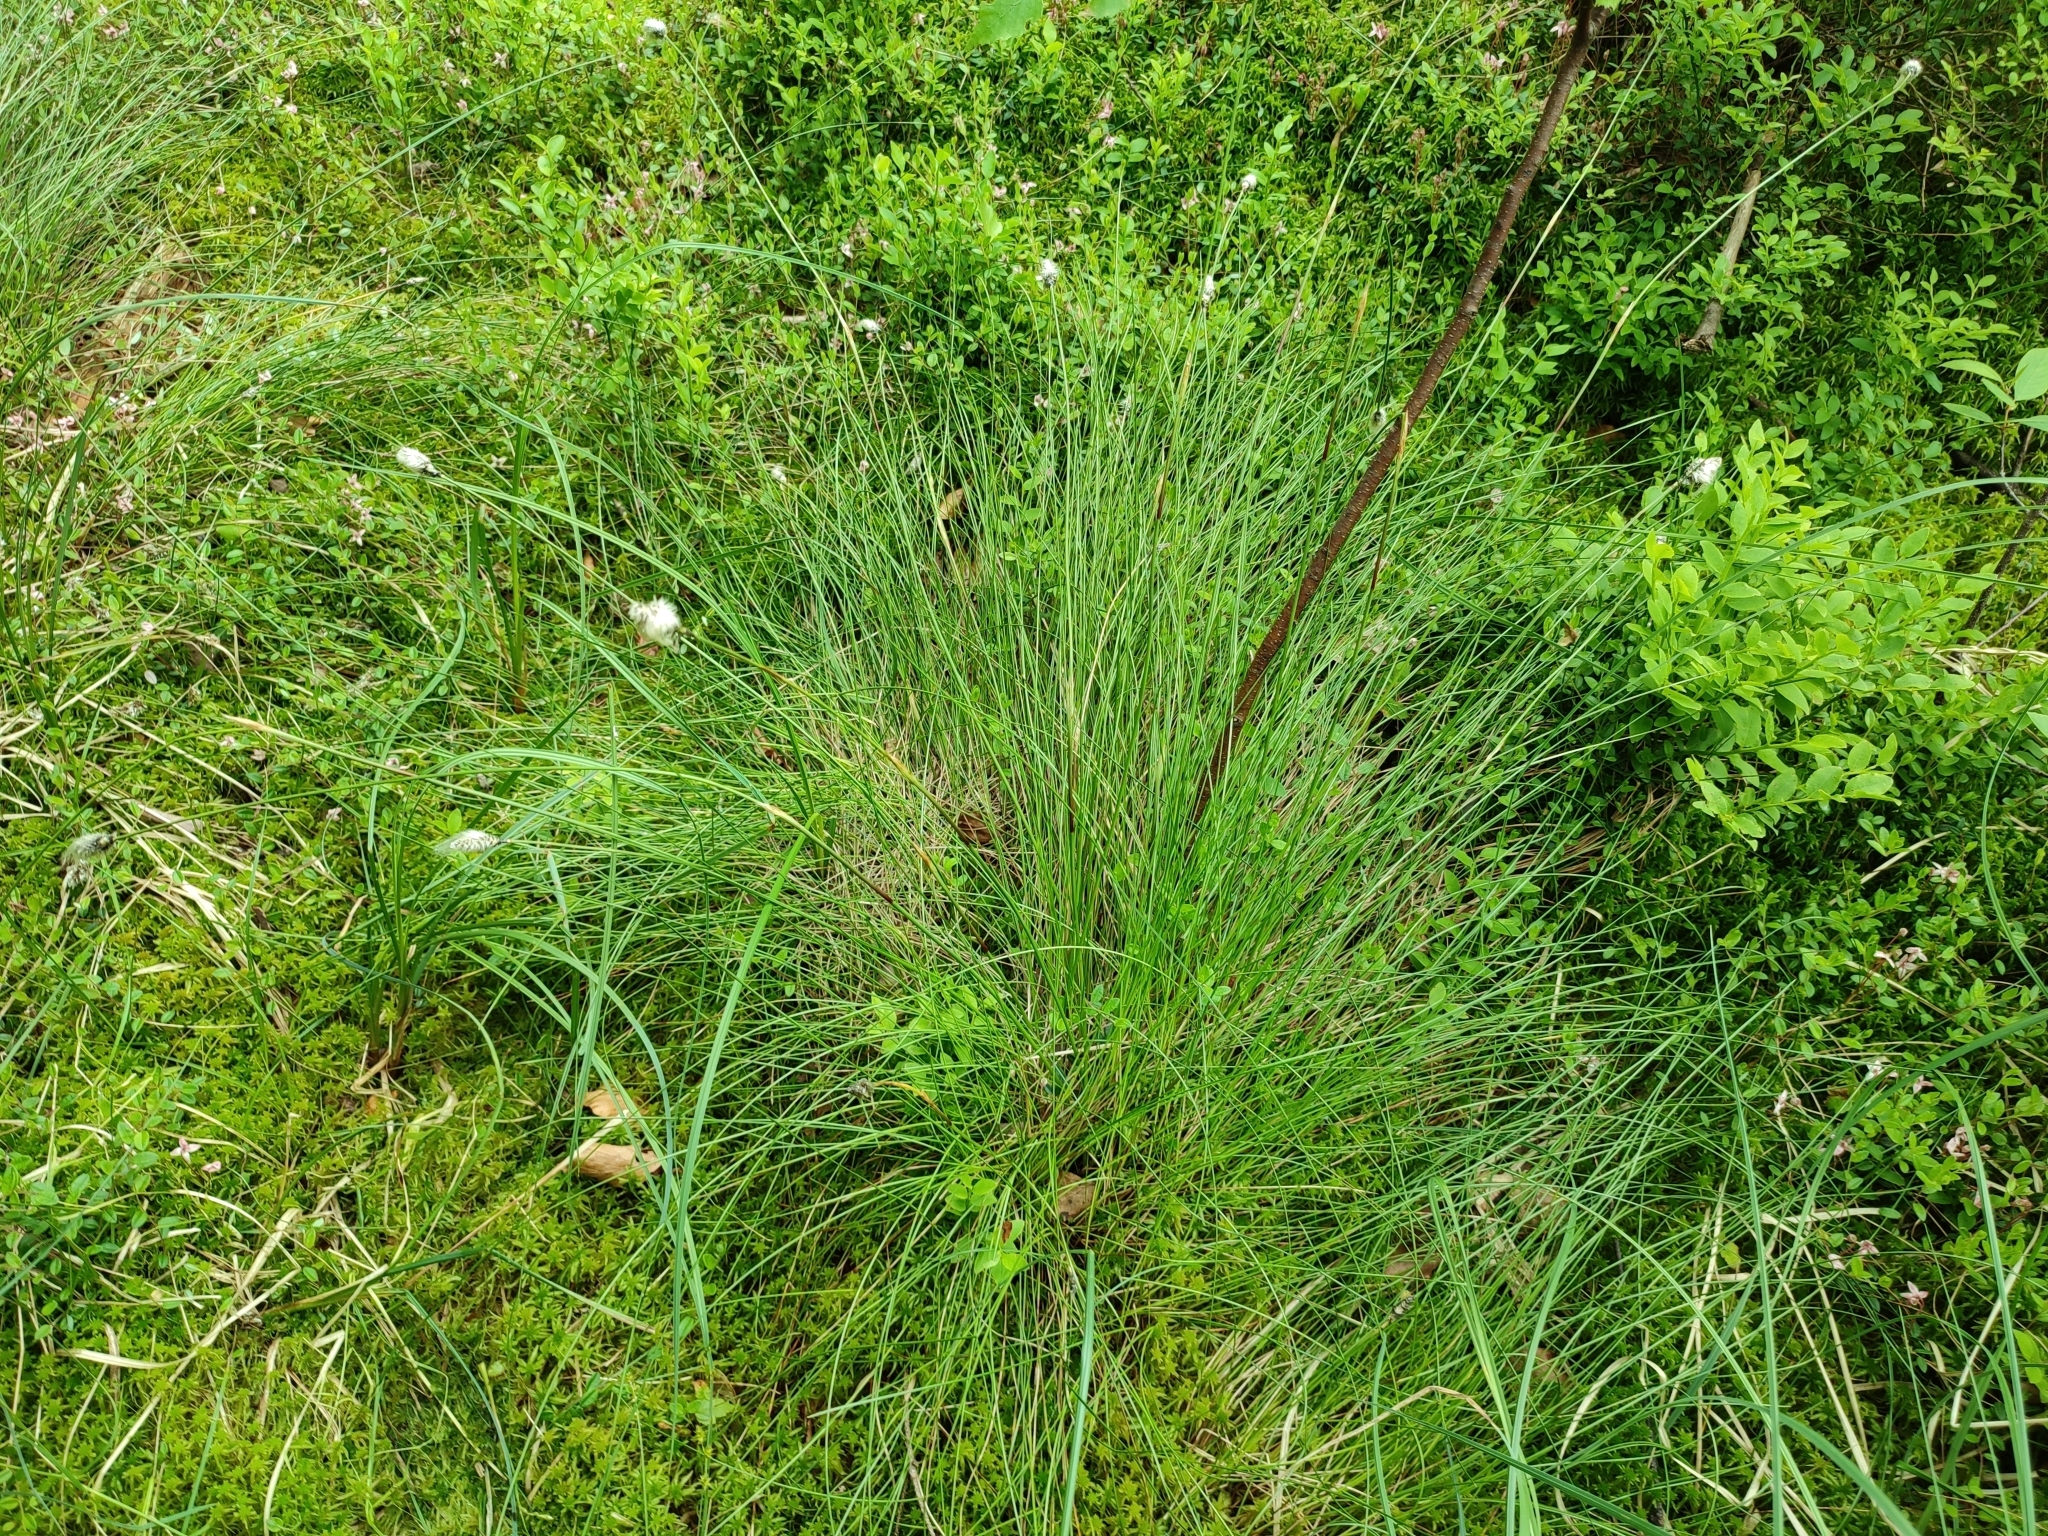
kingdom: Plantae
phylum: Tracheophyta
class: Liliopsida
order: Poales
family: Cyperaceae
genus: Eriophorum
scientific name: Eriophorum vaginatum
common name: Hare's-tail cottongrass
